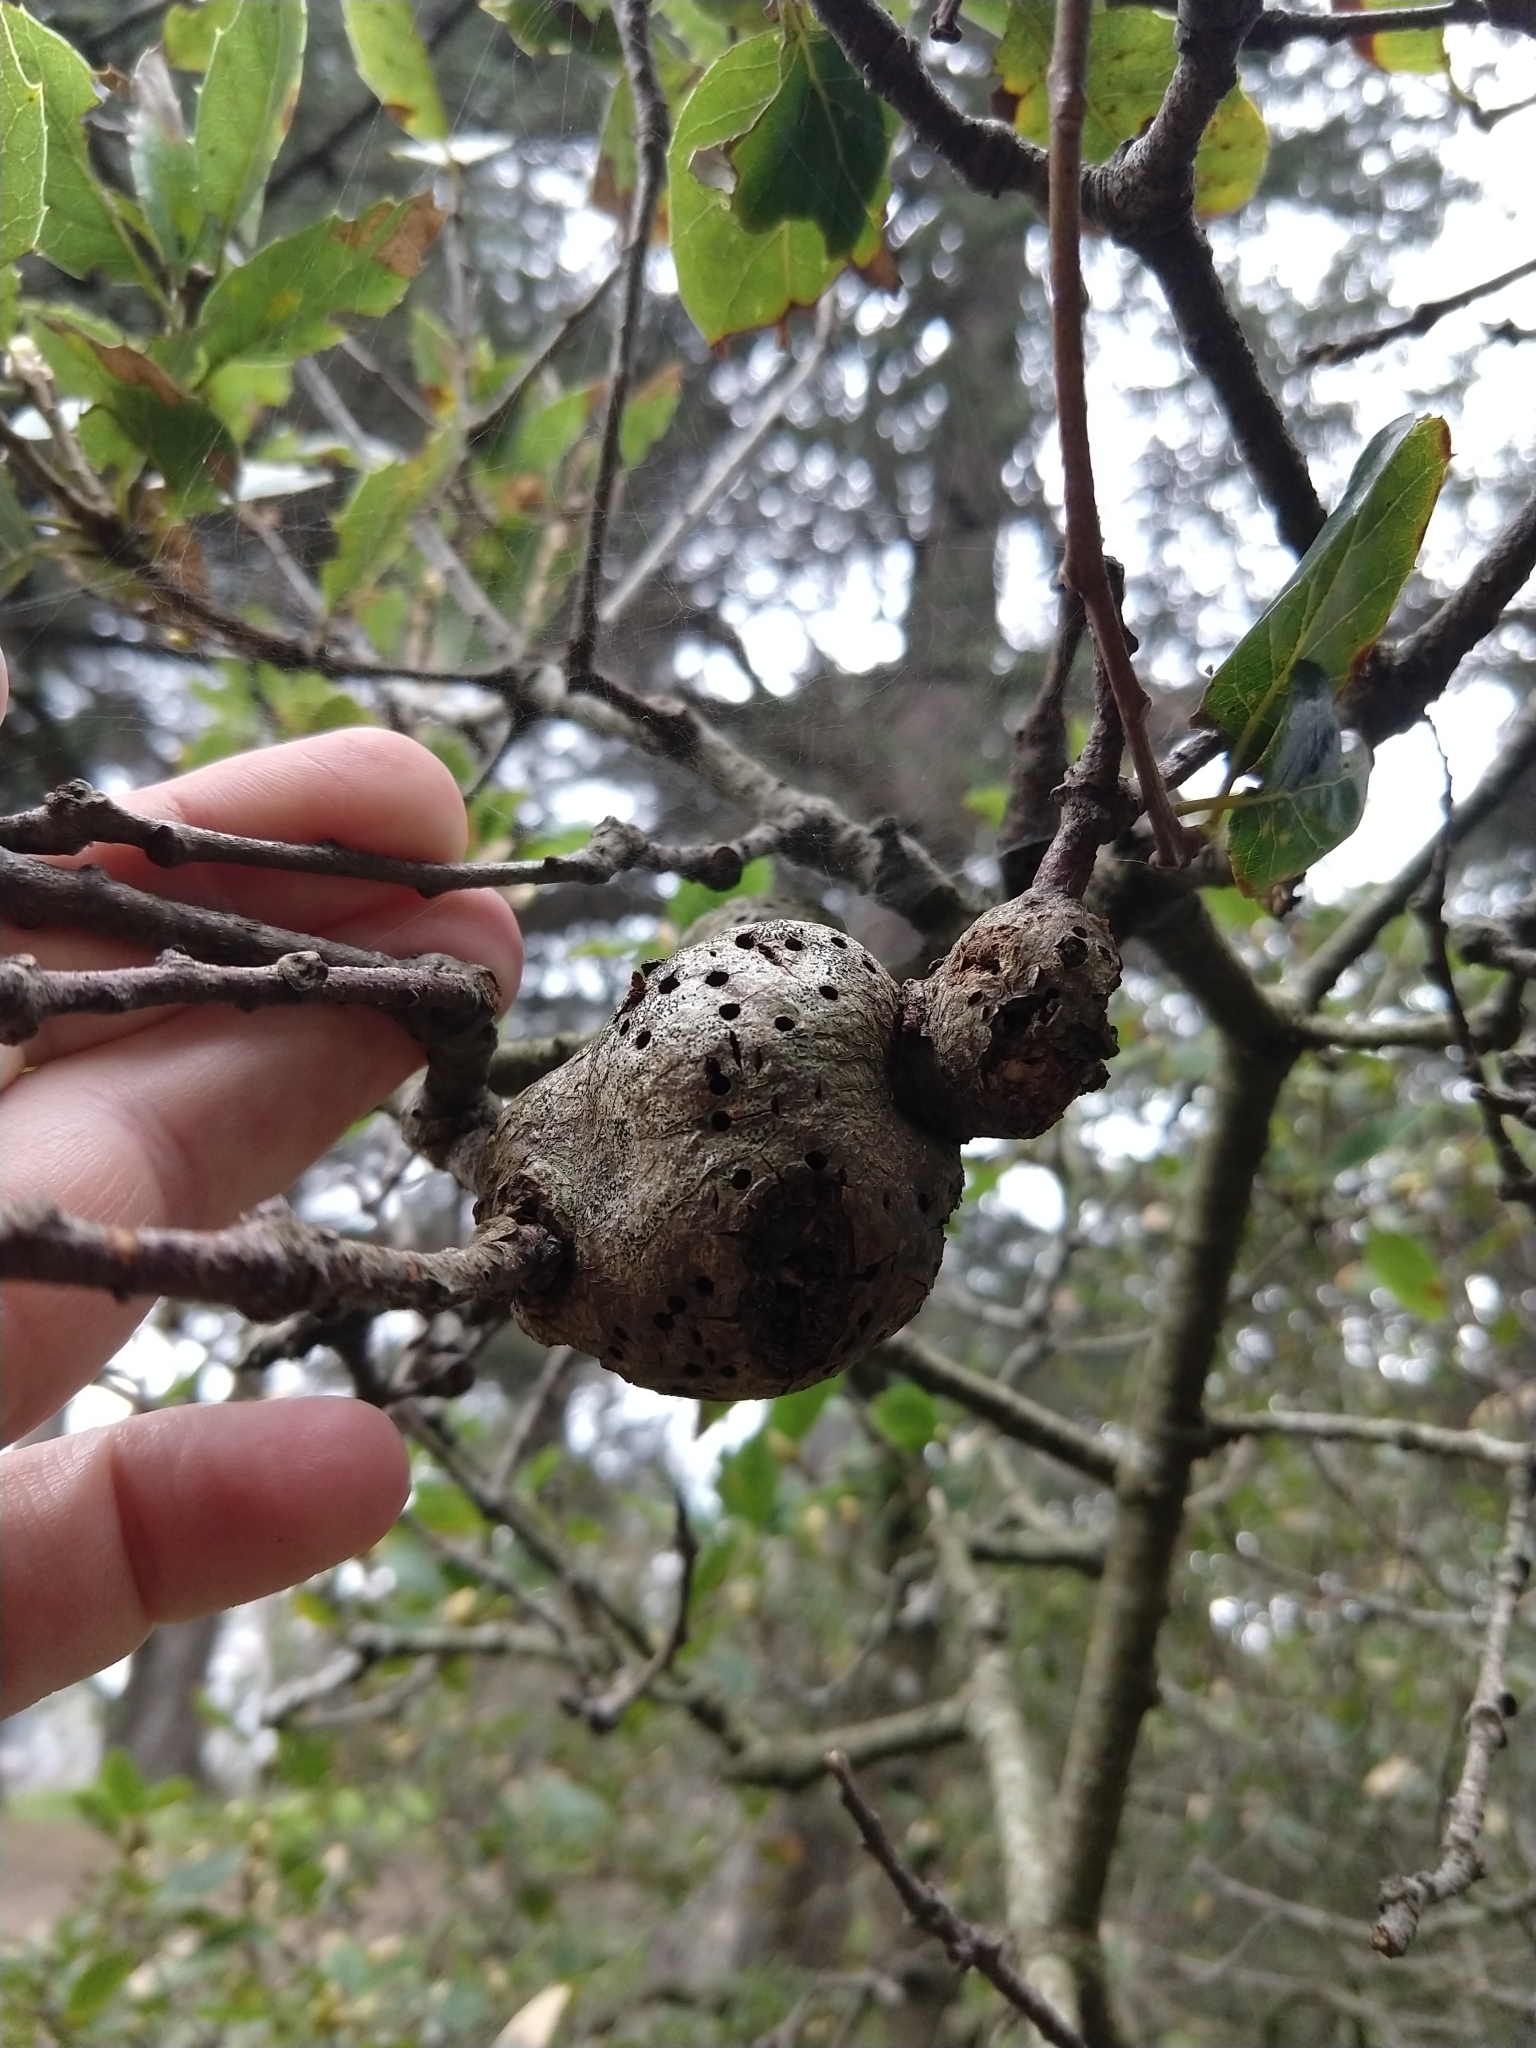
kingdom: Animalia
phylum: Arthropoda
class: Insecta
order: Hymenoptera
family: Cynipidae
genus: Callirhytis
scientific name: Callirhytis
